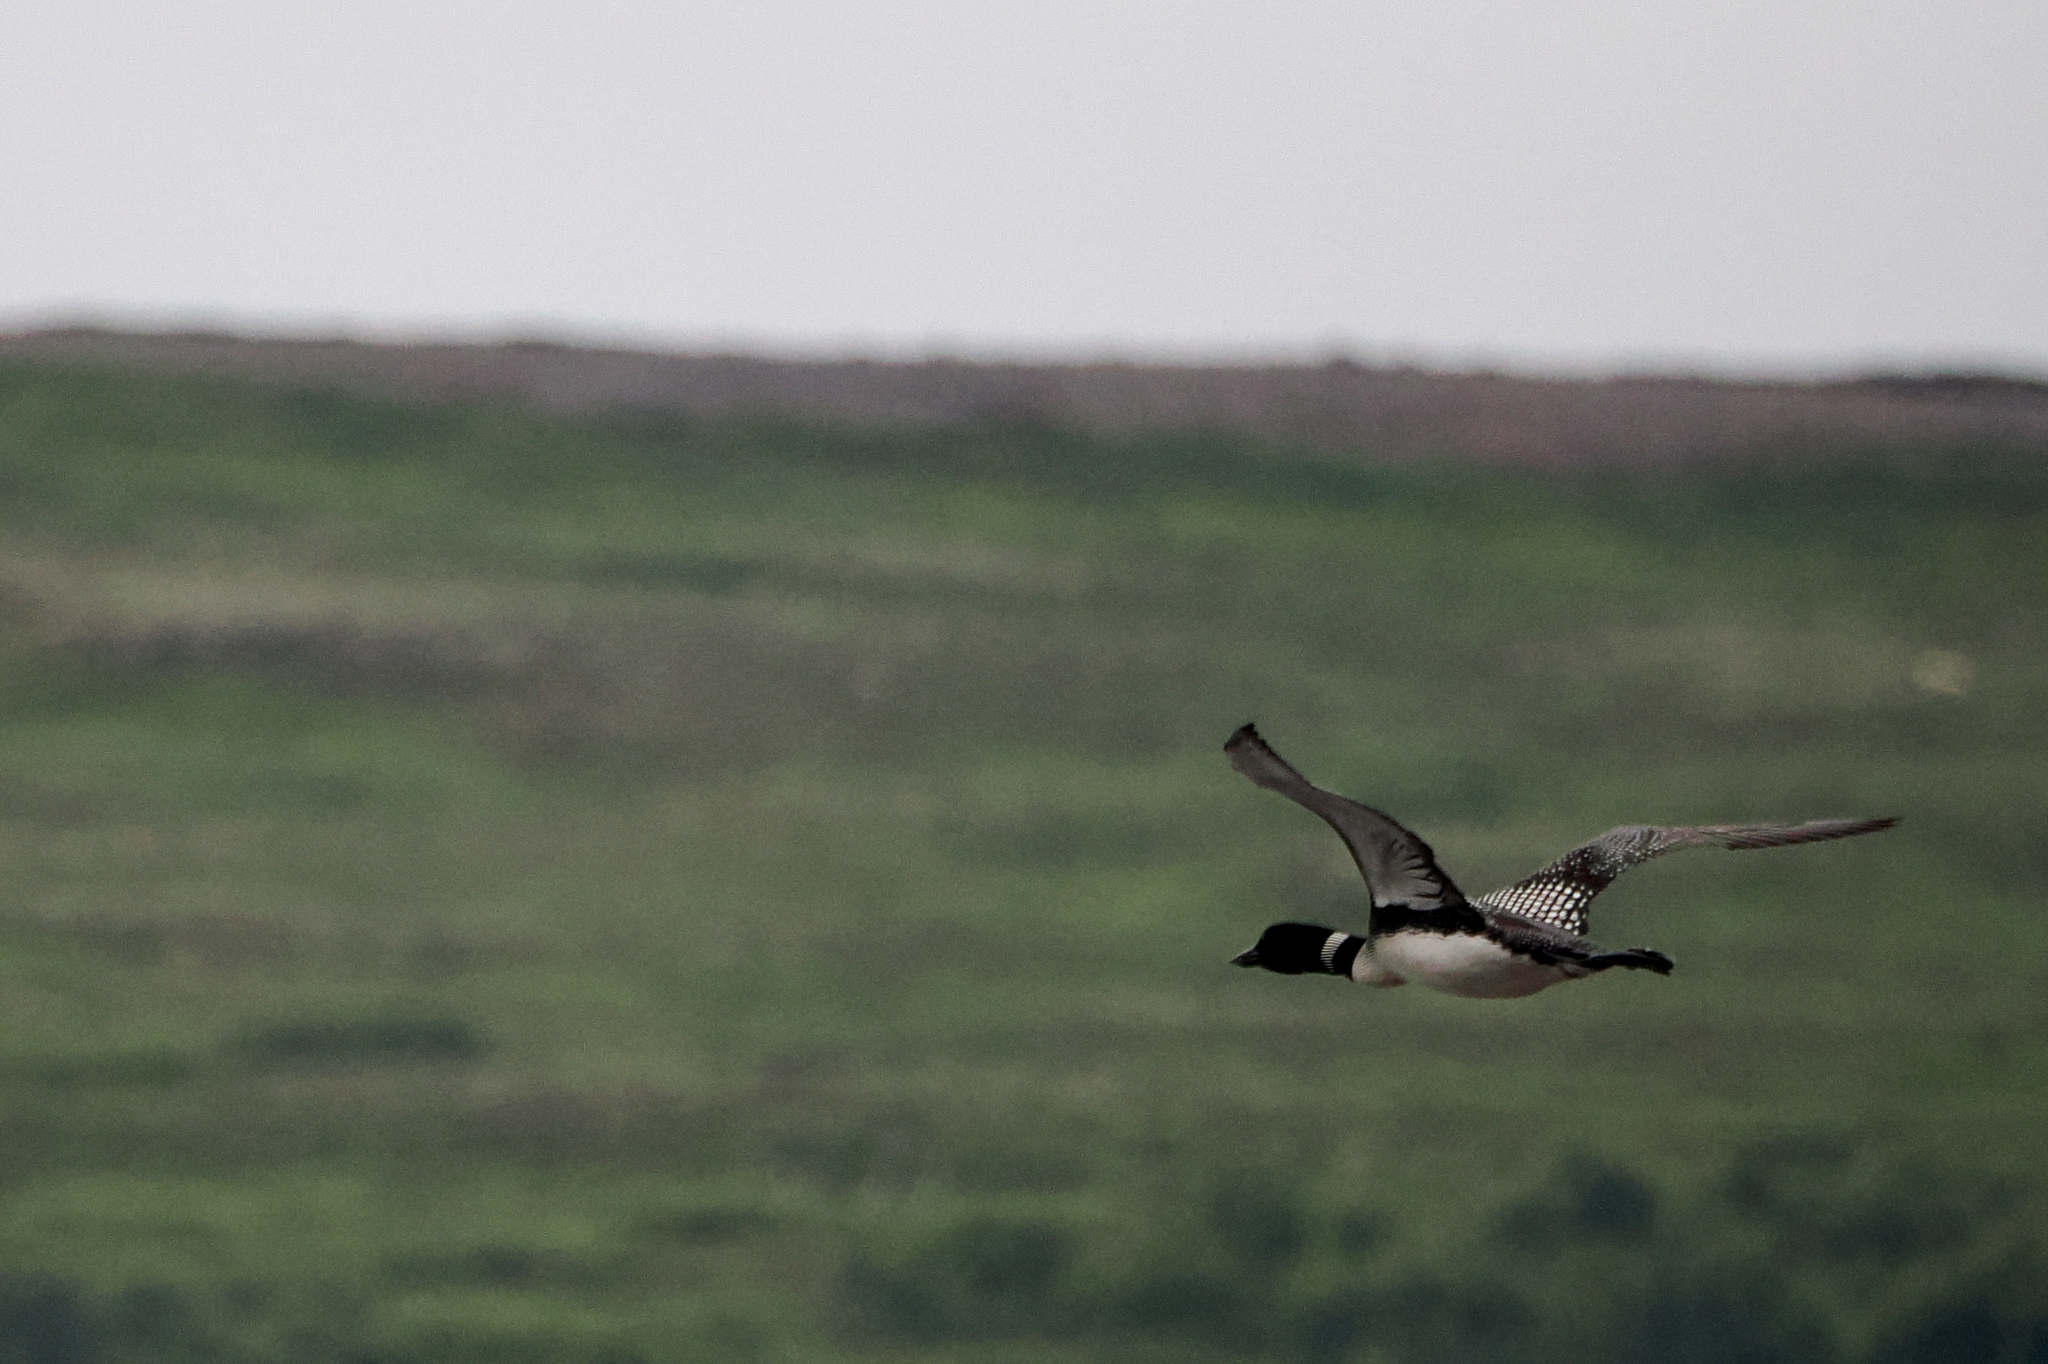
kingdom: Animalia
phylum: Chordata
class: Aves
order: Gaviiformes
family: Gaviidae
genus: Gavia
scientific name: Gavia immer
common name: Common loon
